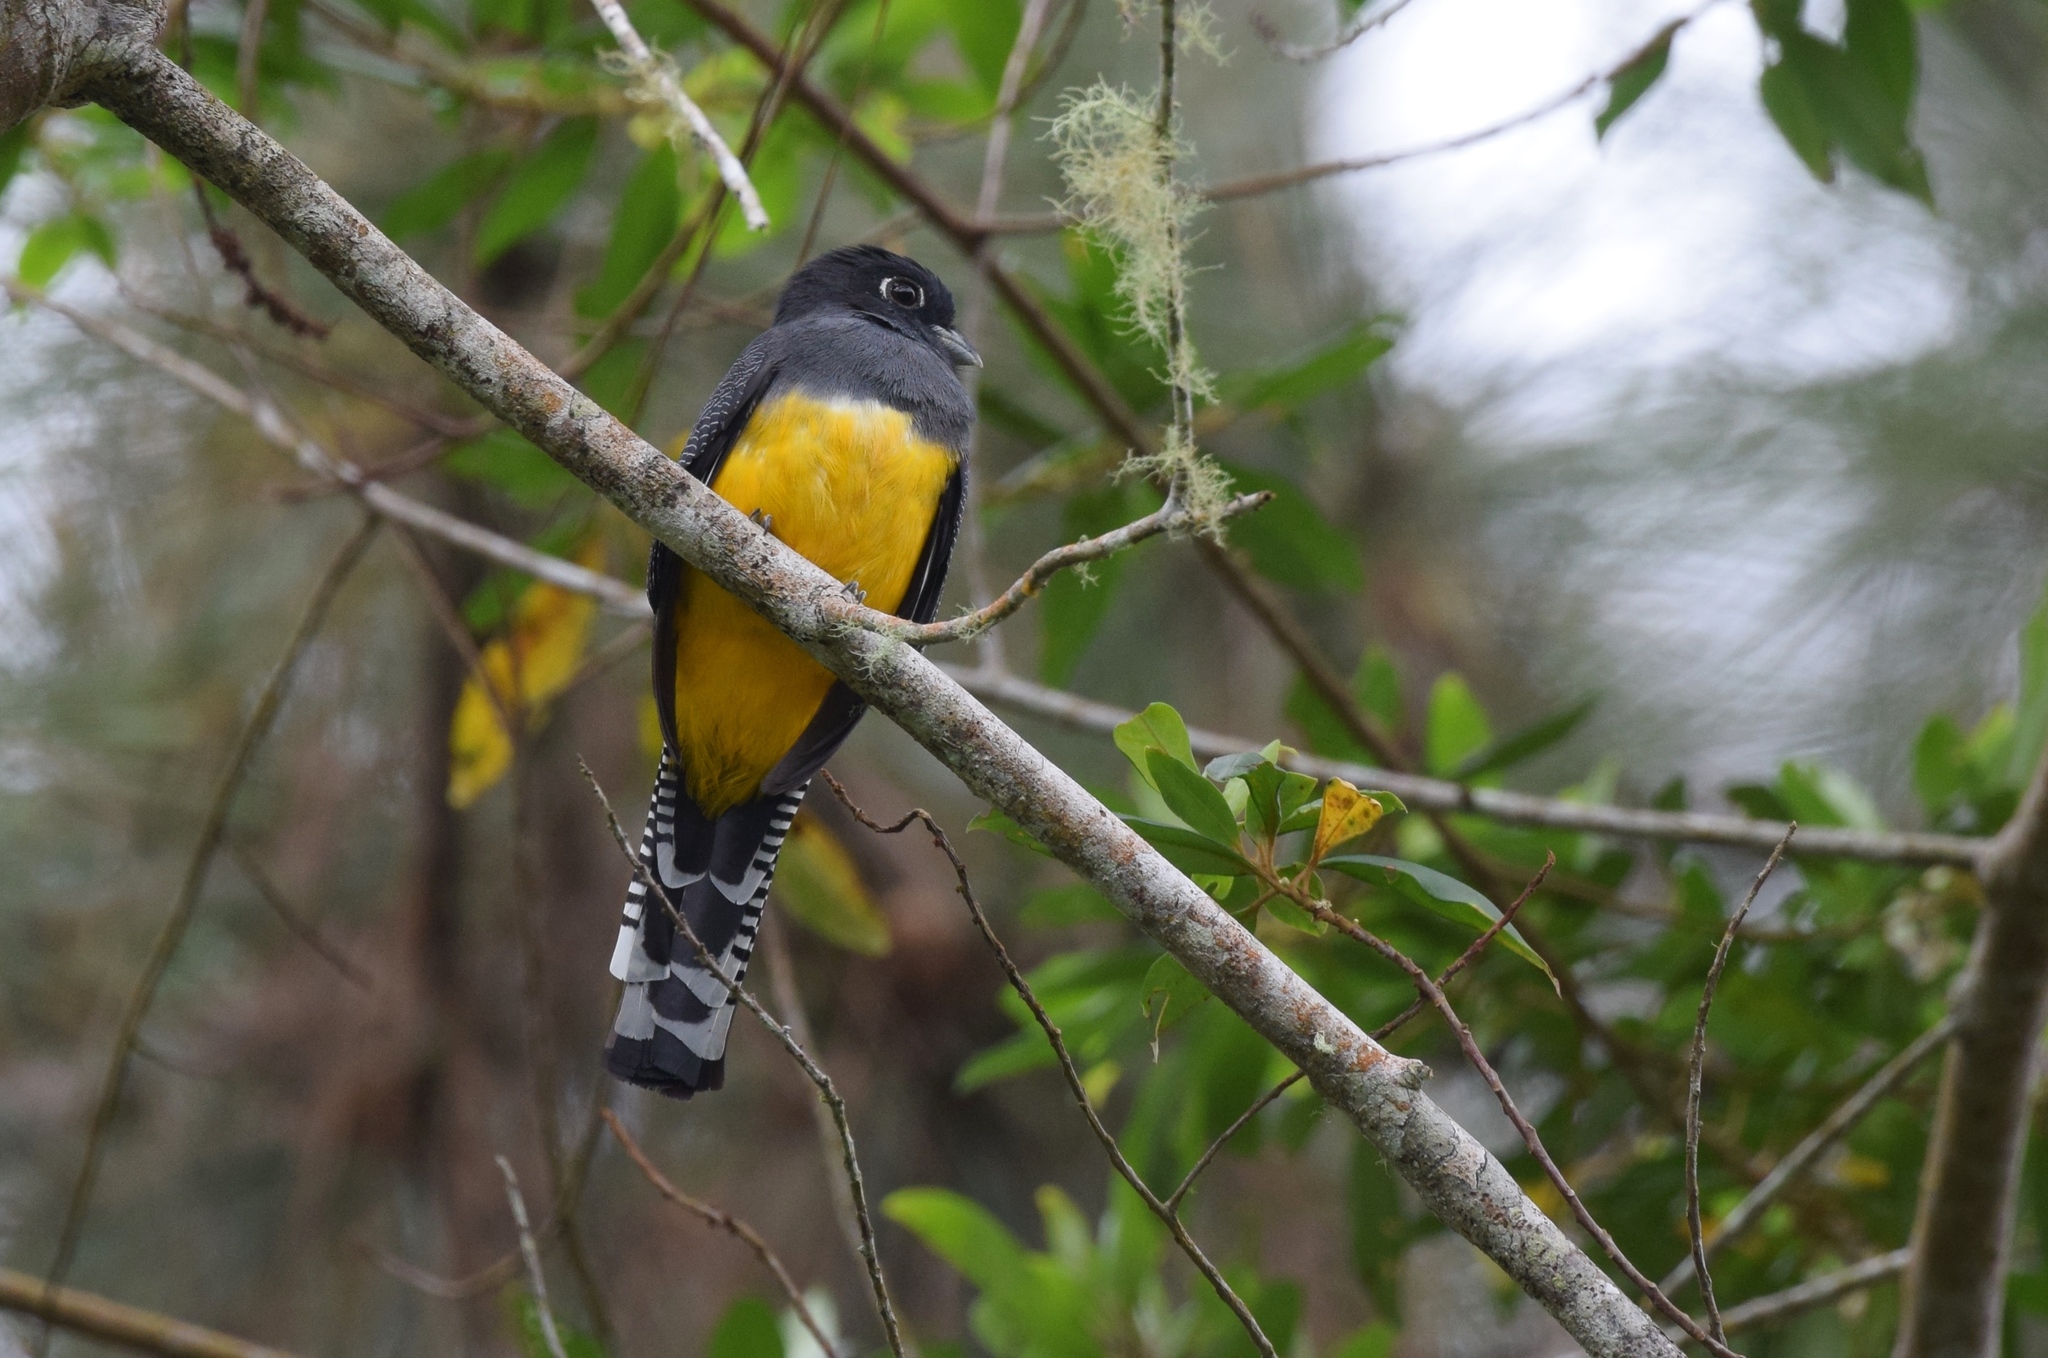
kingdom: Animalia
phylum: Chordata
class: Aves
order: Trogoniformes
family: Trogonidae
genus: Trogon
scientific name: Trogon caligatus
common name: Gartered trogon
